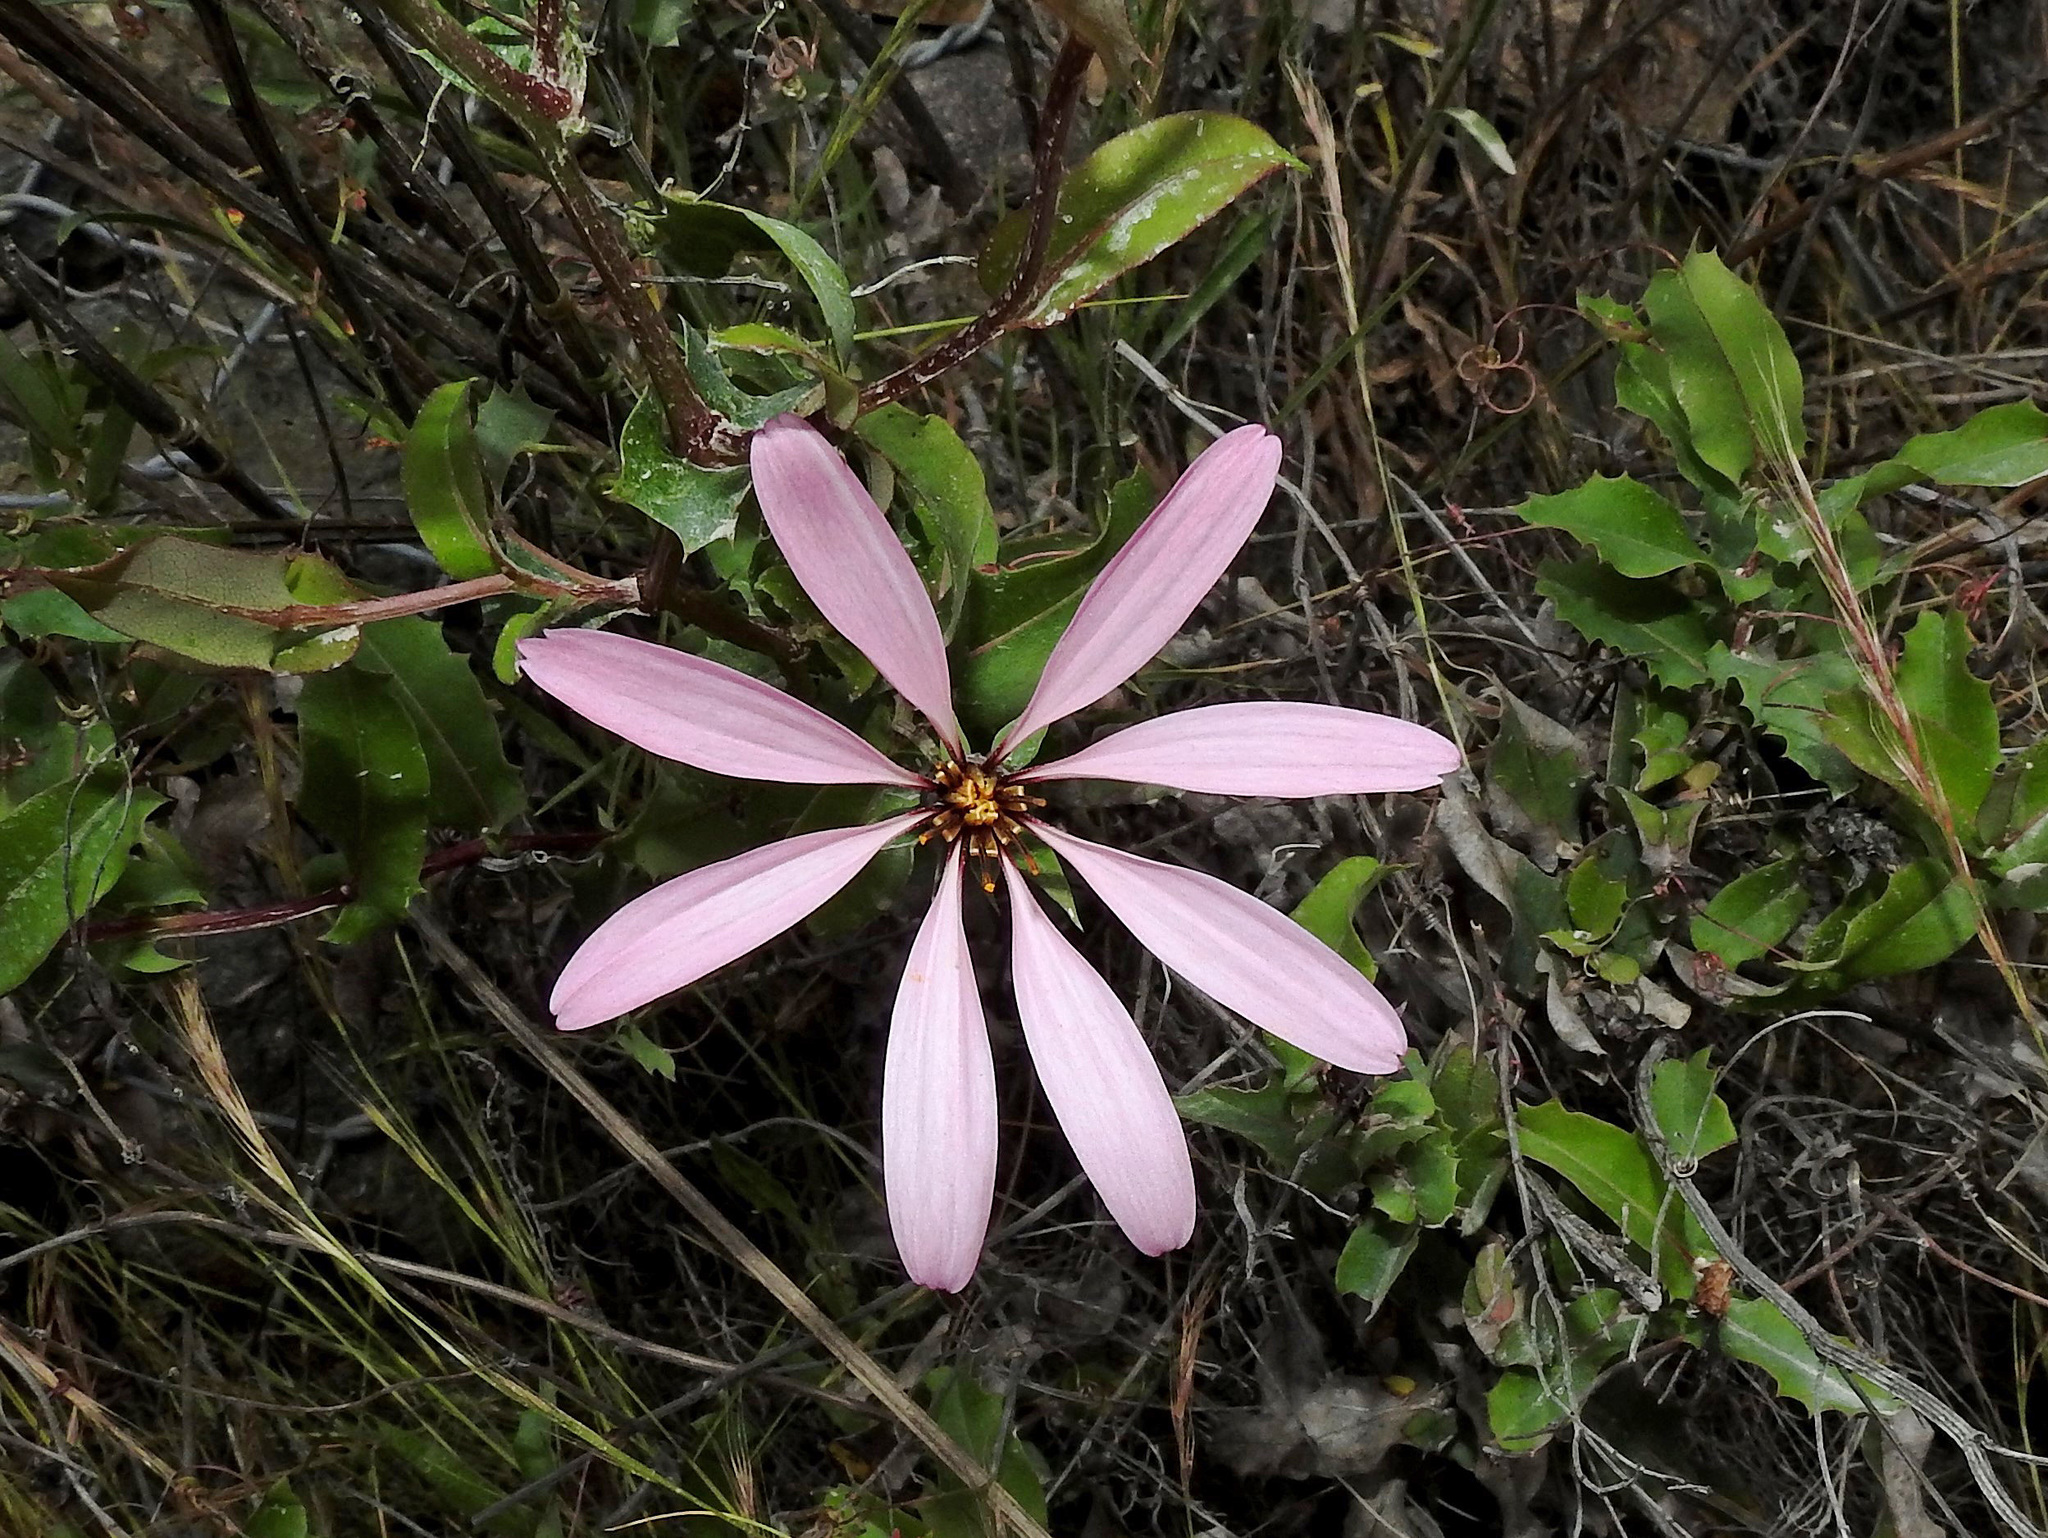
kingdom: Plantae
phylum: Tracheophyta
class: Magnoliopsida
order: Asterales
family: Asteraceae
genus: Mutisia
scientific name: Mutisia spinosa
